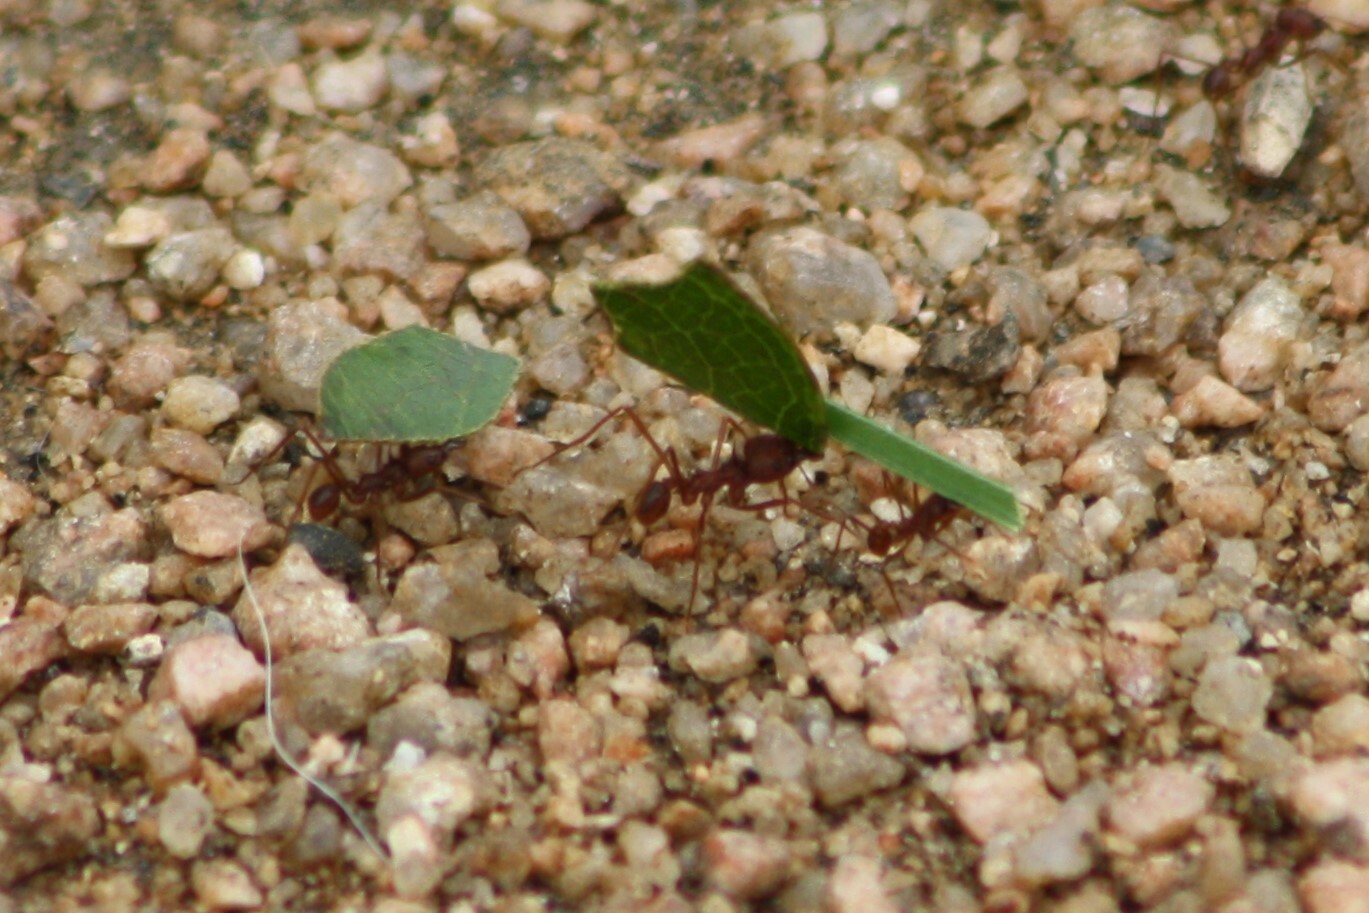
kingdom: Animalia
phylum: Arthropoda
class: Insecta
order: Hymenoptera
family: Formicidae
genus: Atta
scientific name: Atta texana
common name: Texas leafcutting ant
